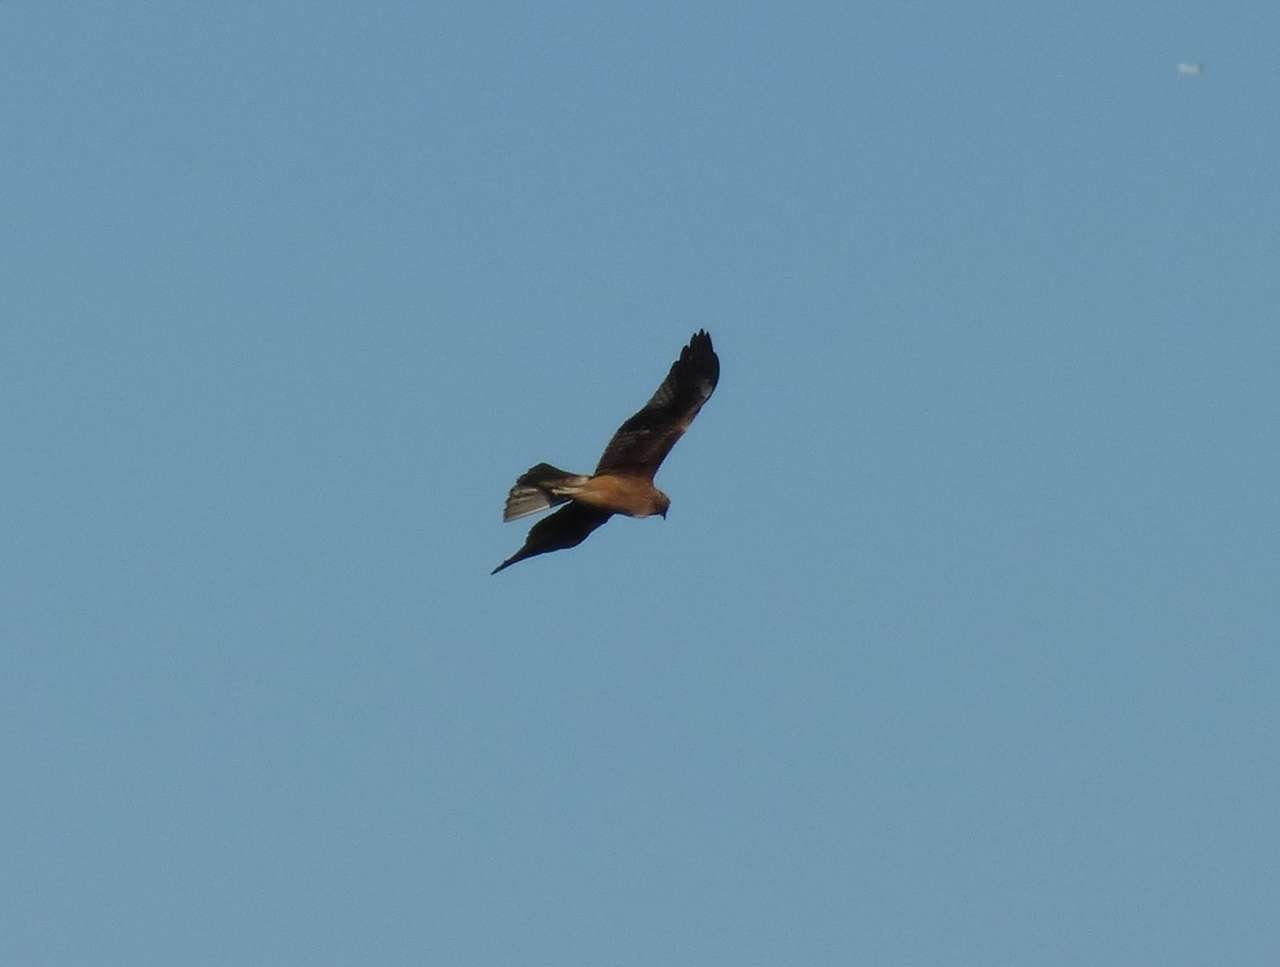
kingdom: Animalia
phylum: Chordata
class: Aves
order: Accipitriformes
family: Accipitridae
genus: Hieraaetus
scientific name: Hieraaetus morphnoides
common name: Little eagle
